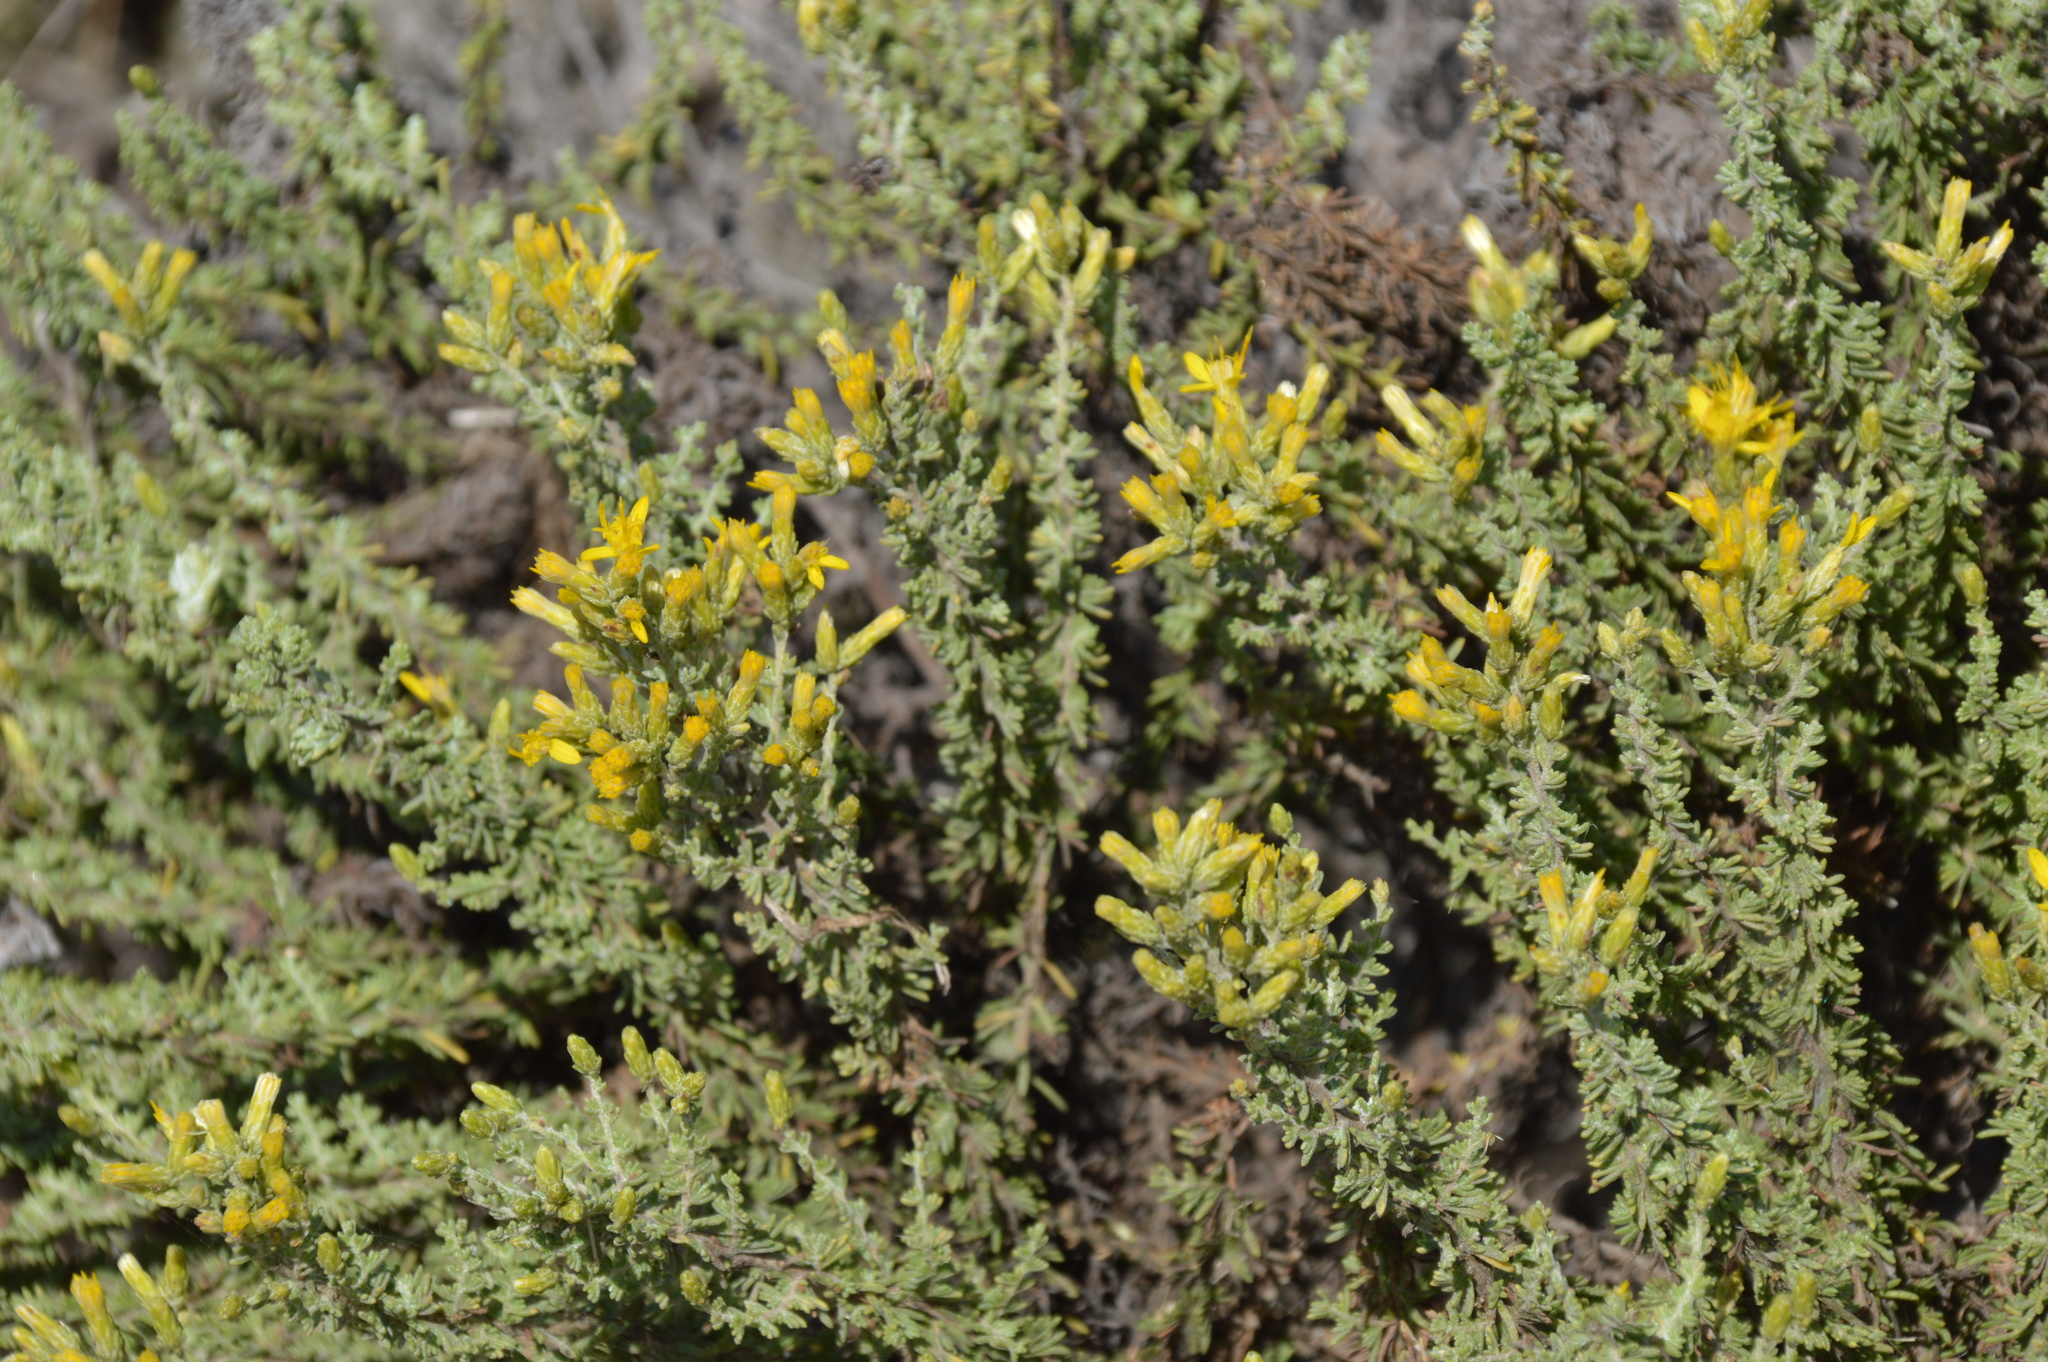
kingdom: Plantae
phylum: Tracheophyta
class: Magnoliopsida
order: Asterales
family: Asteraceae
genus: Ericameria
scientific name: Ericameria ericoides
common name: California goldenbush
